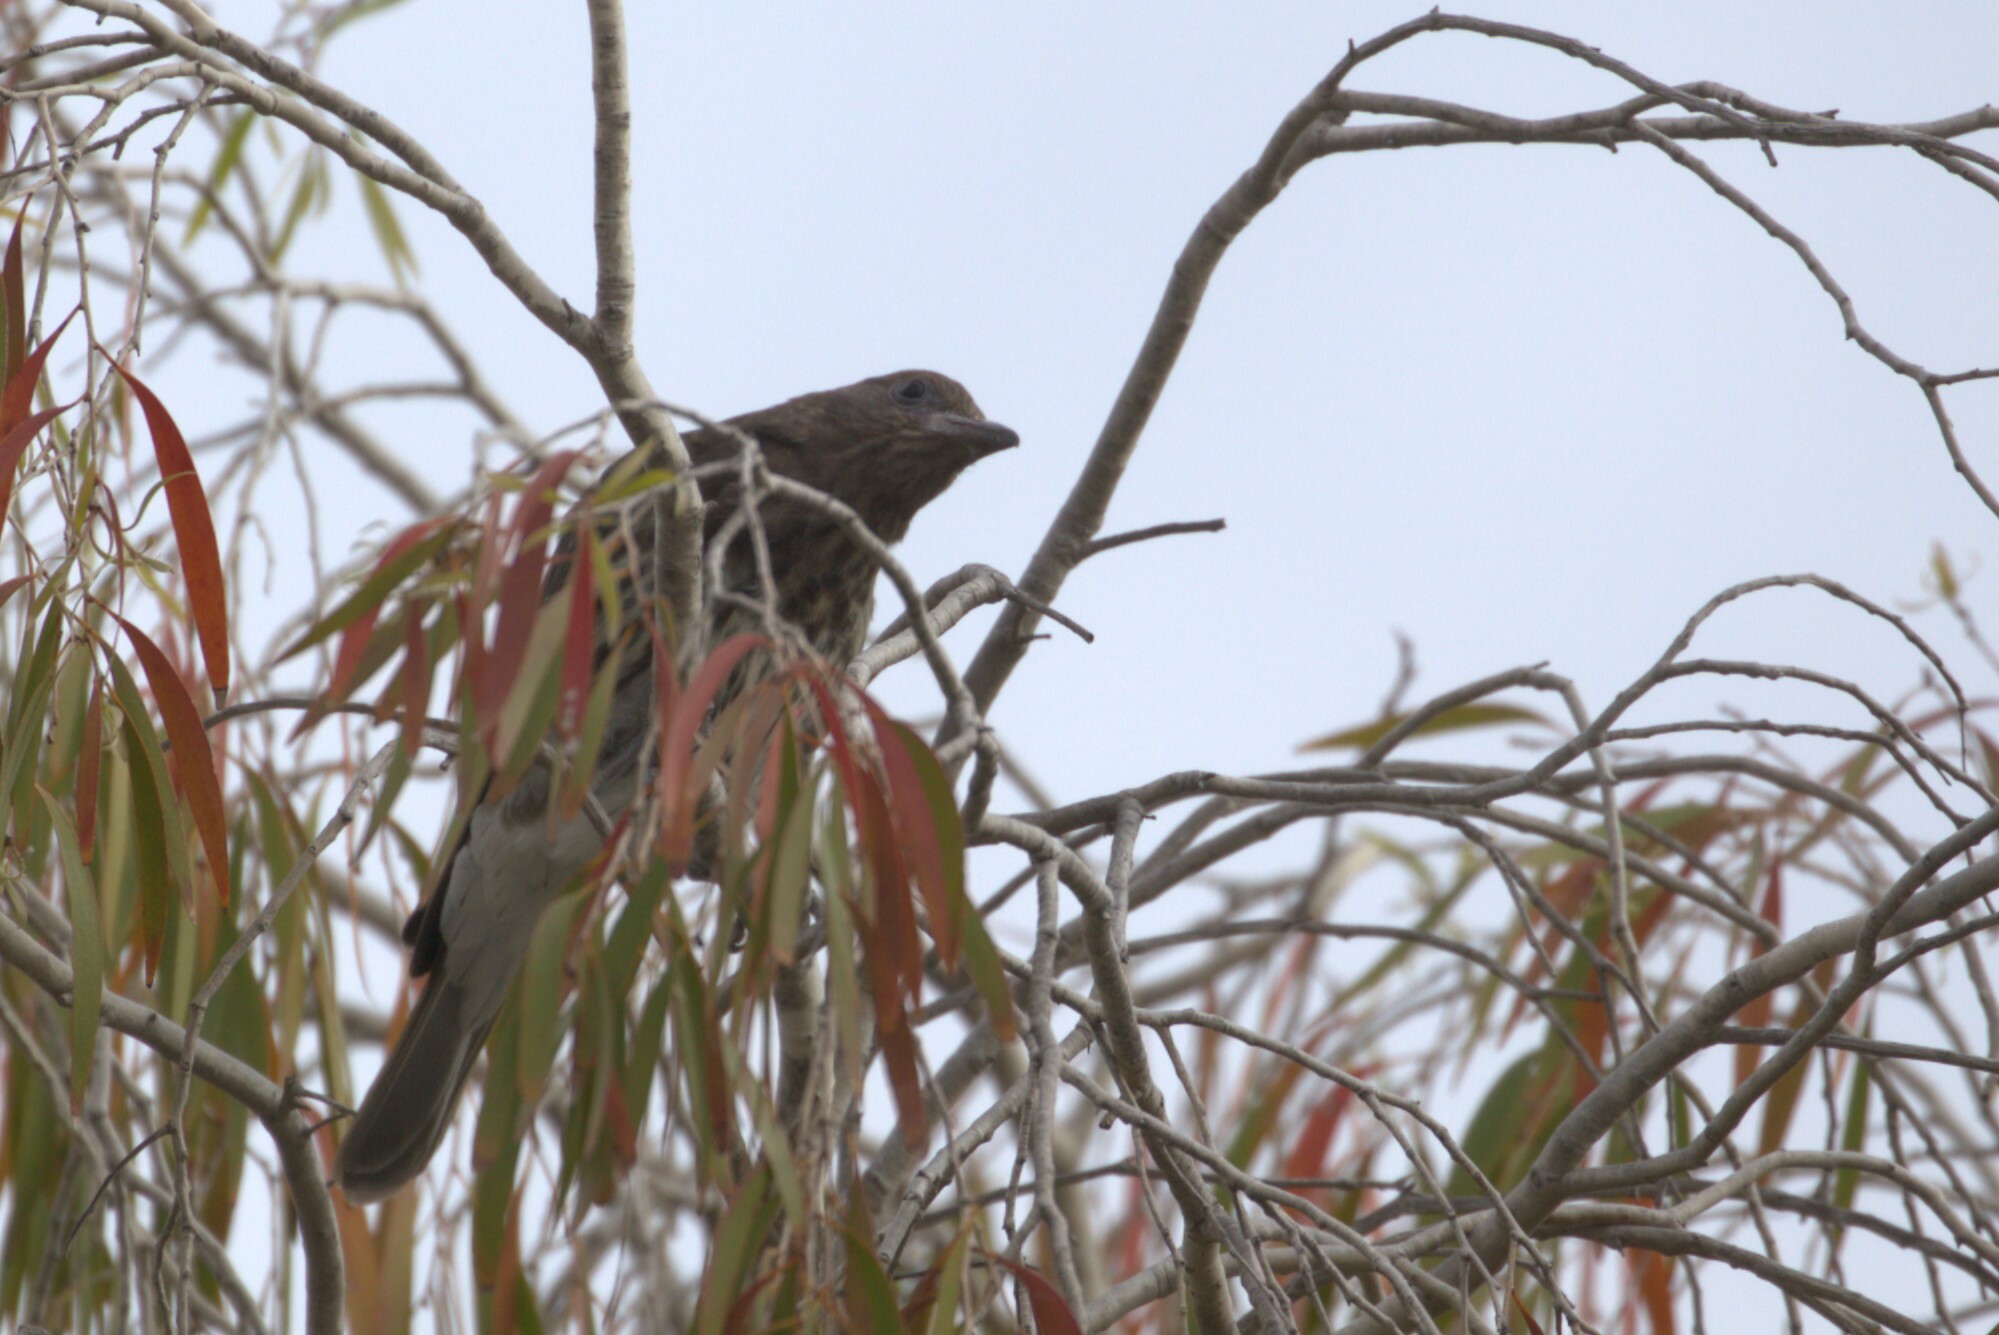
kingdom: Animalia
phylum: Chordata
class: Aves
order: Passeriformes
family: Oriolidae
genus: Sphecotheres
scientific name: Sphecotheres vieilloti
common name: Australasian figbird
